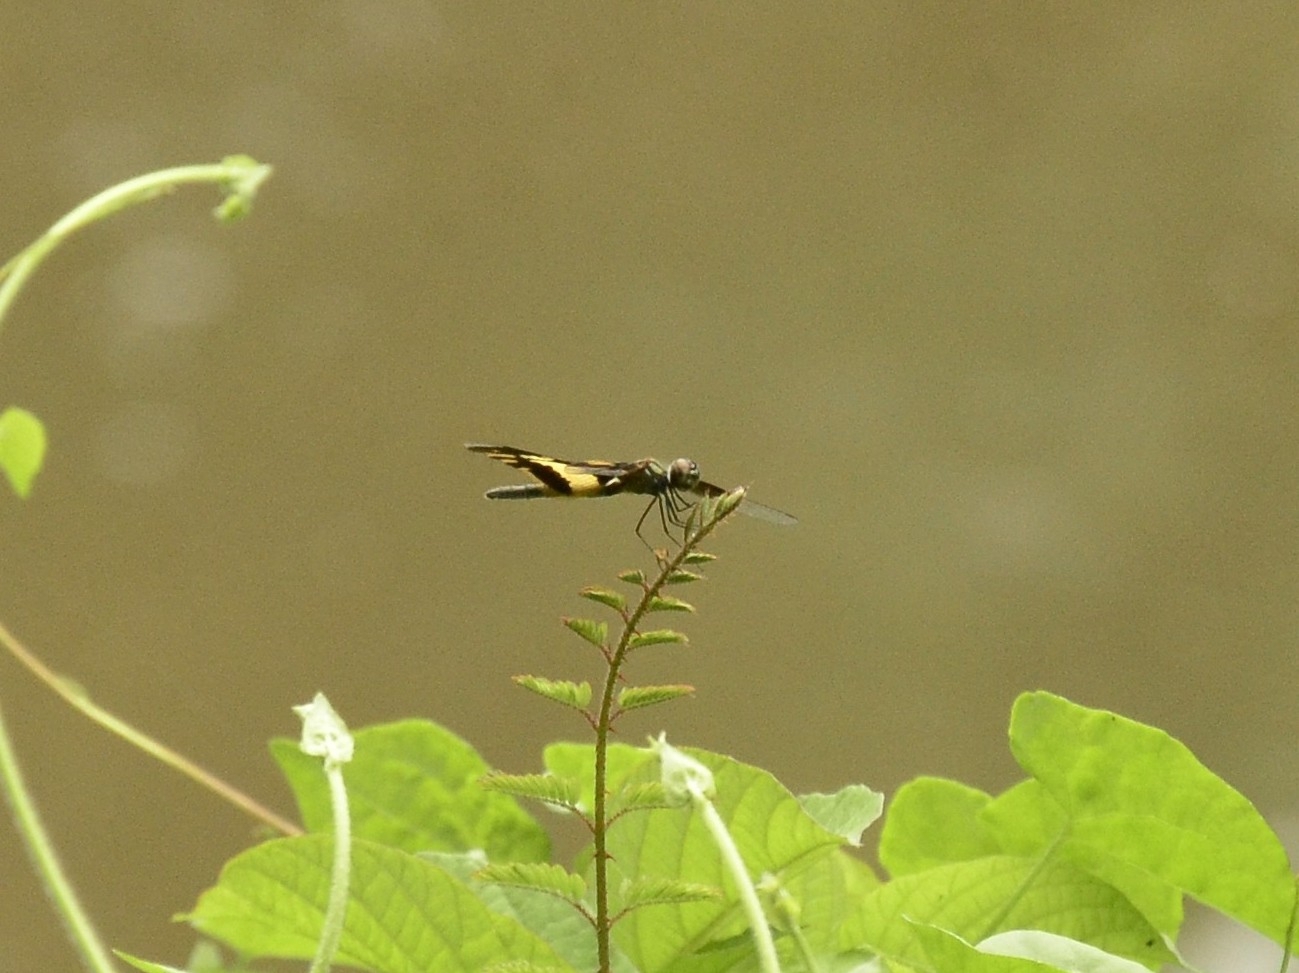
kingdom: Animalia
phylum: Arthropoda
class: Insecta
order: Odonata
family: Libellulidae
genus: Rhyothemis
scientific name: Rhyothemis variegata
